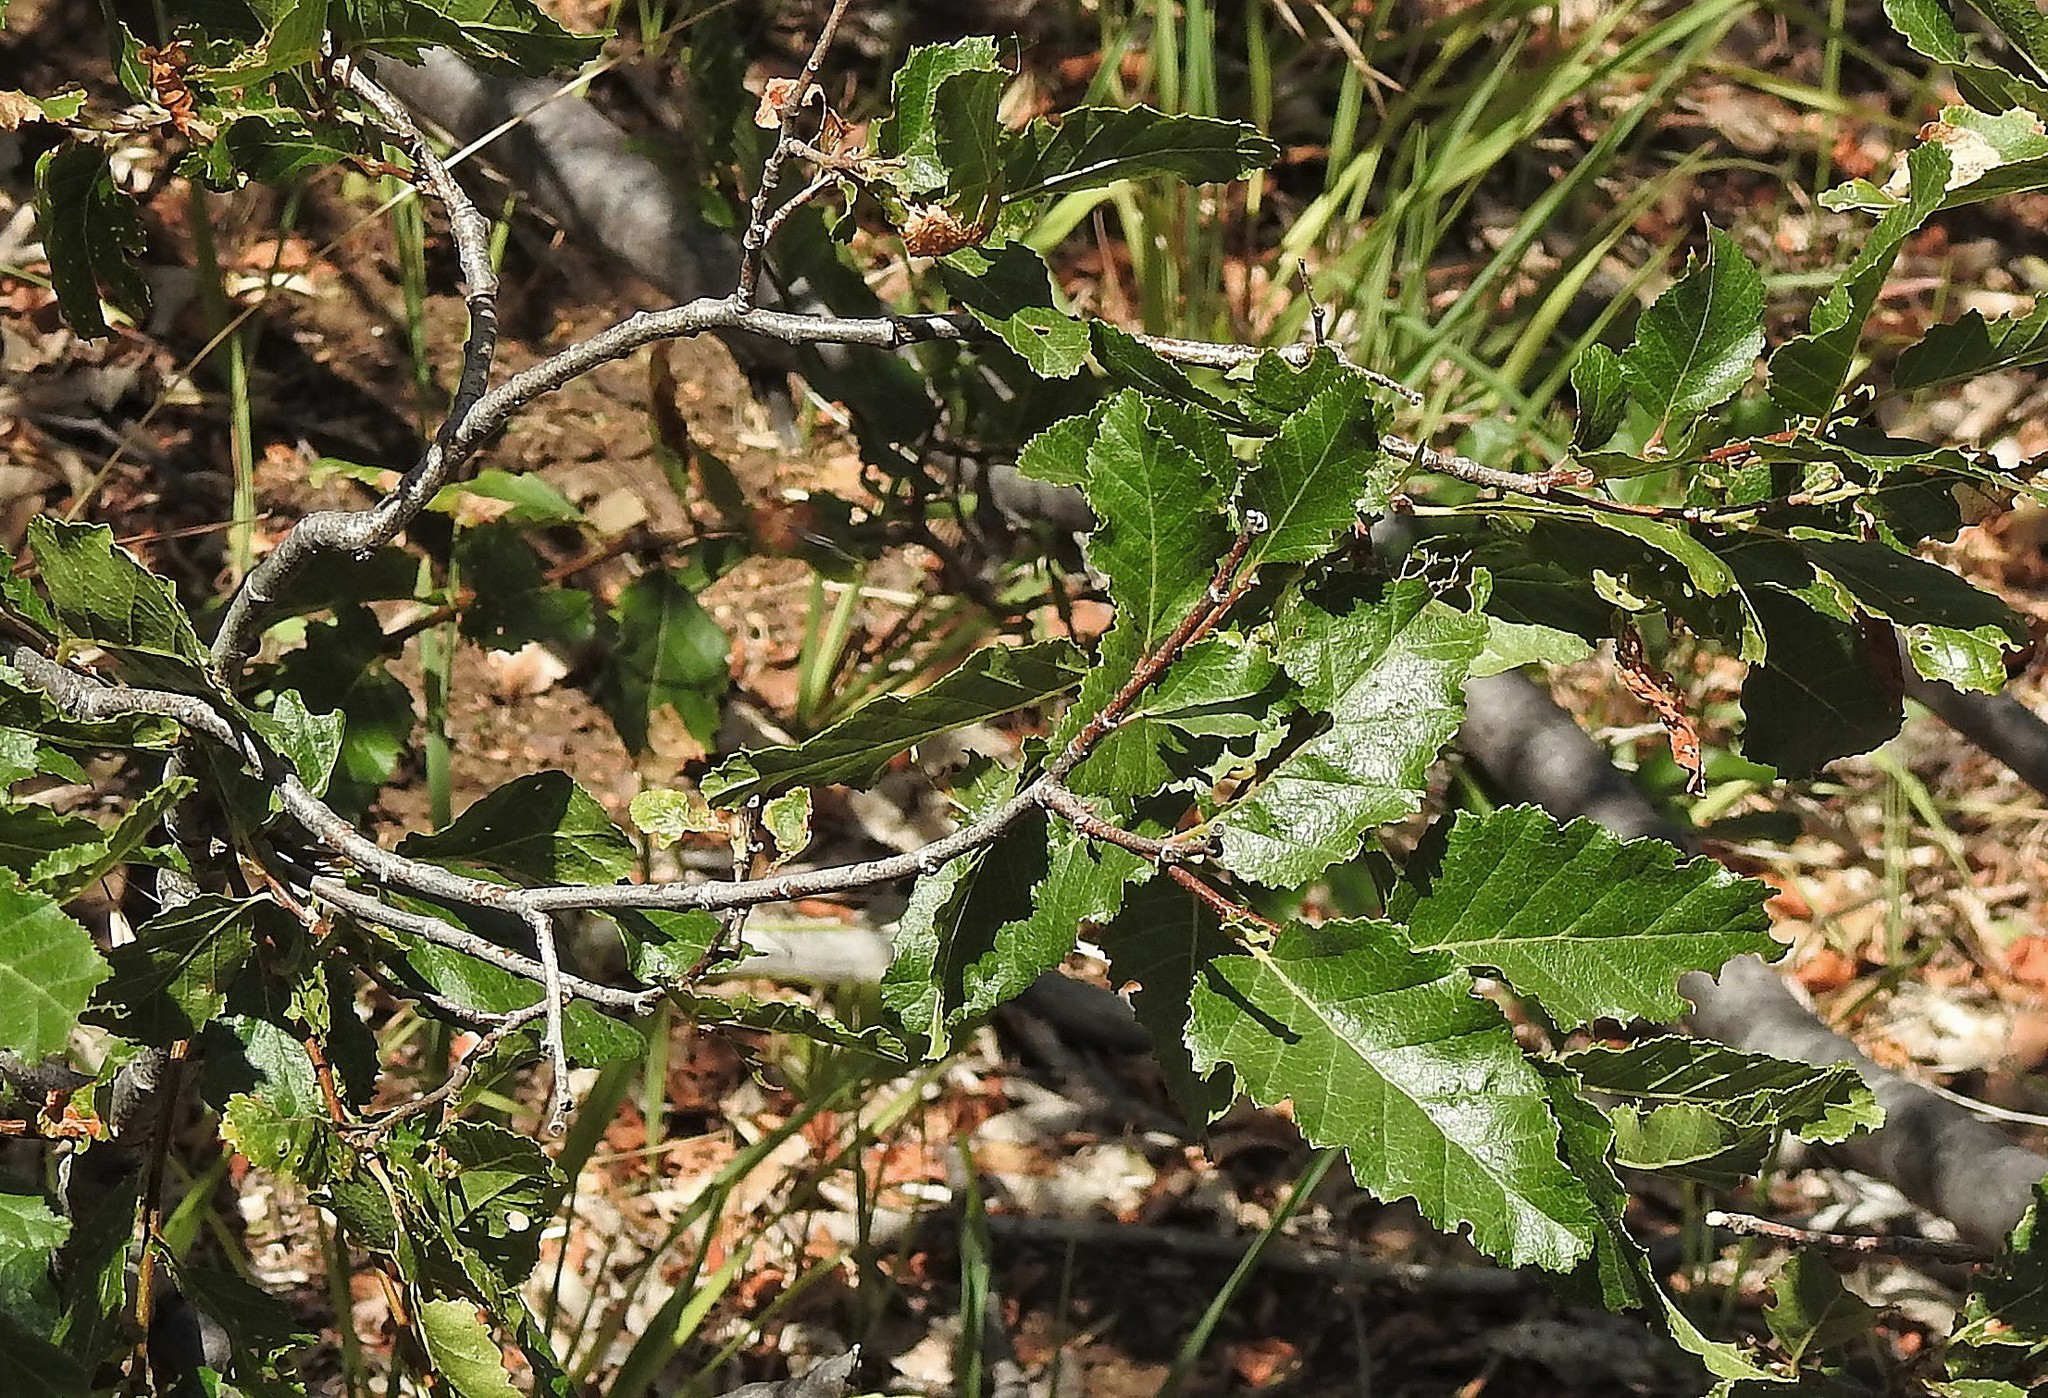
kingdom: Plantae
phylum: Tracheophyta
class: Magnoliopsida
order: Fagales
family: Nothofagaceae
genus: Nothofagus
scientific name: Nothofagus obliqua
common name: Roble beech
